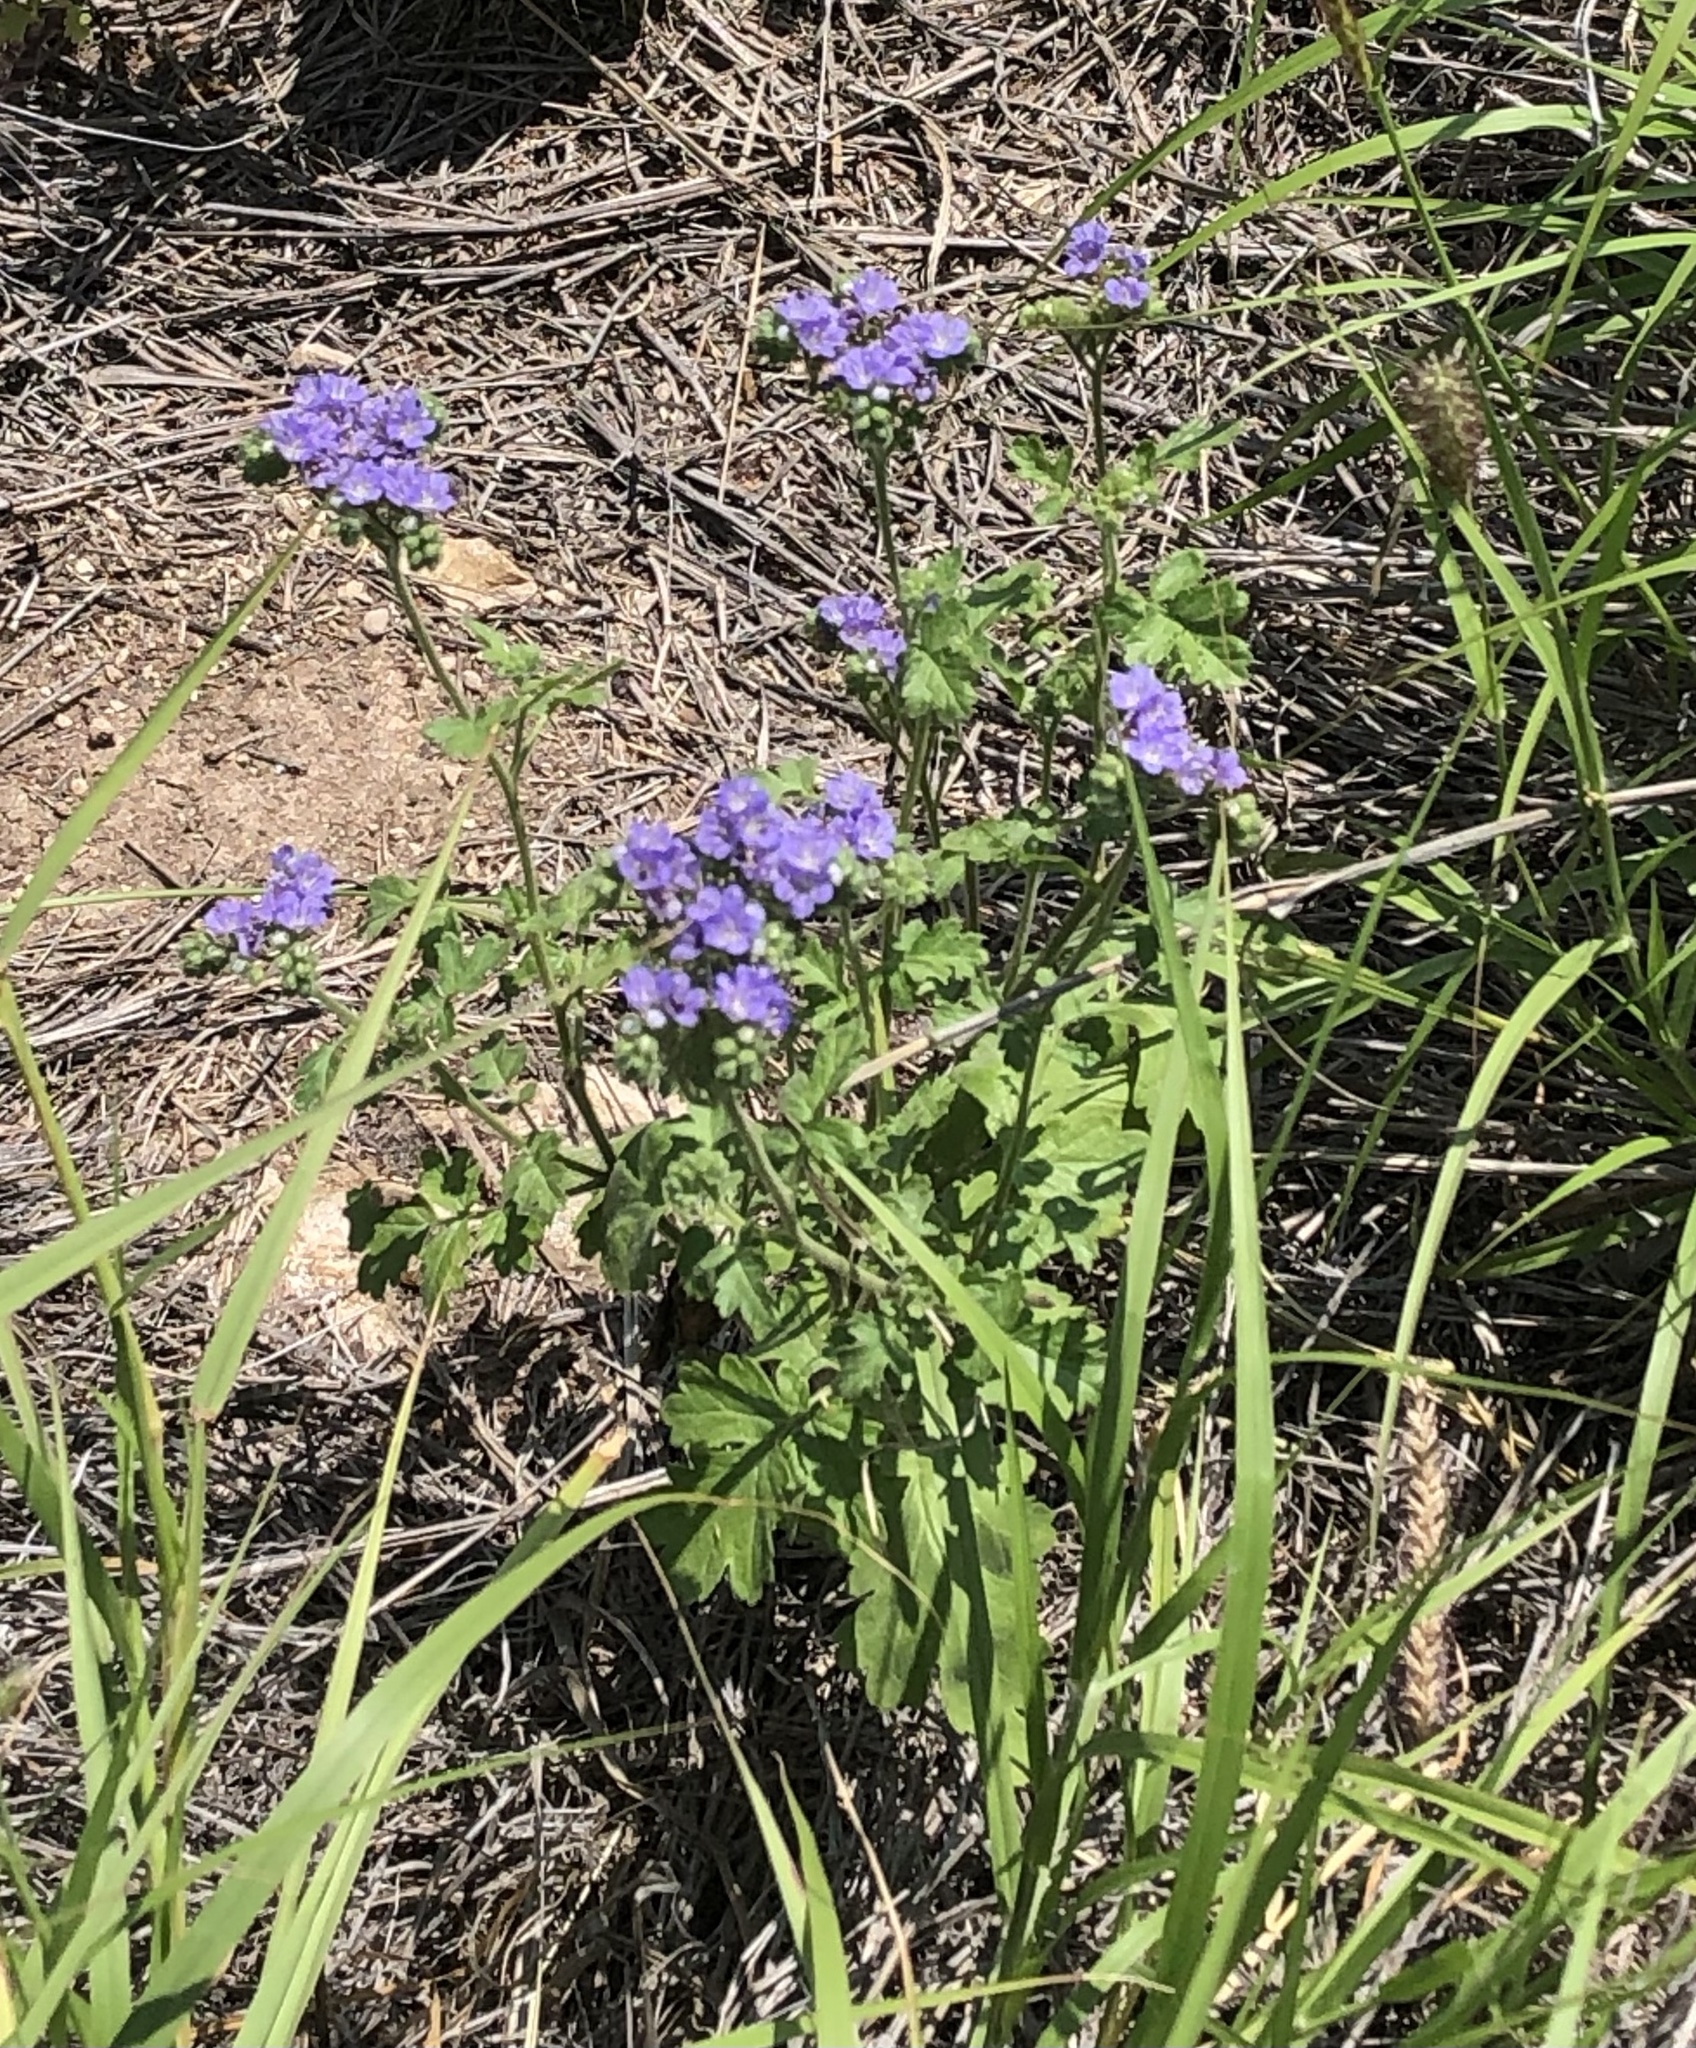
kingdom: Plantae
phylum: Tracheophyta
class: Magnoliopsida
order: Boraginales
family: Hydrophyllaceae
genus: Phacelia
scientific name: Phacelia congesta
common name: Blue curls
